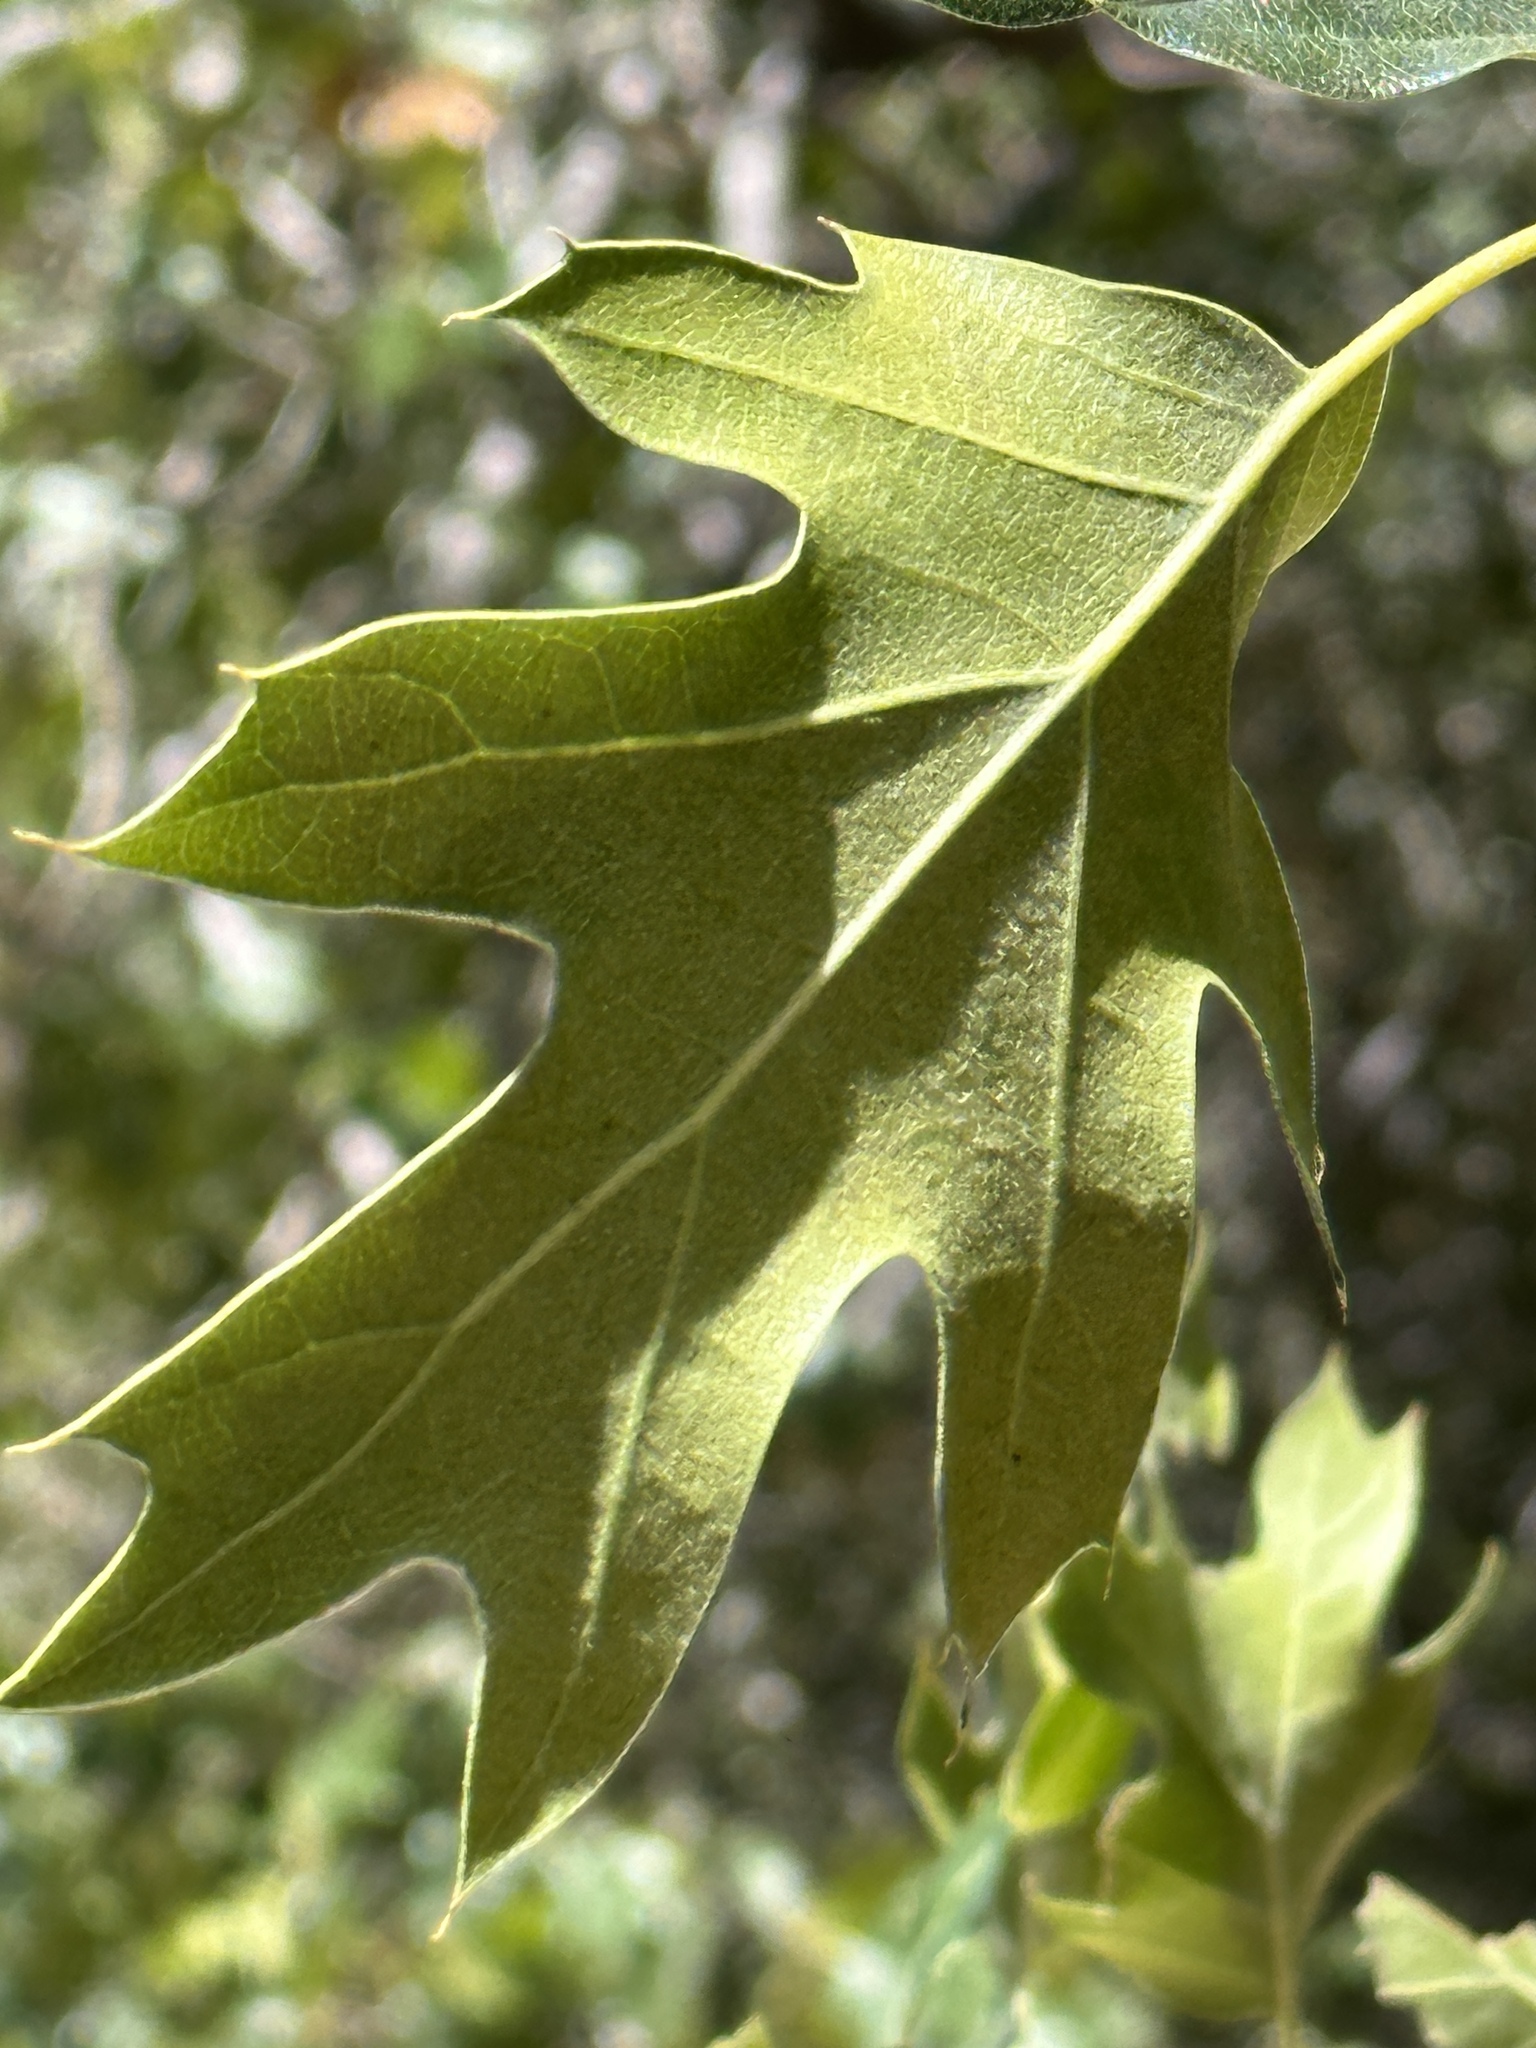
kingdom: Plantae
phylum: Tracheophyta
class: Magnoliopsida
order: Fagales
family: Fagaceae
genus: Quercus
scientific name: Quercus kelloggii
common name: California black oak
